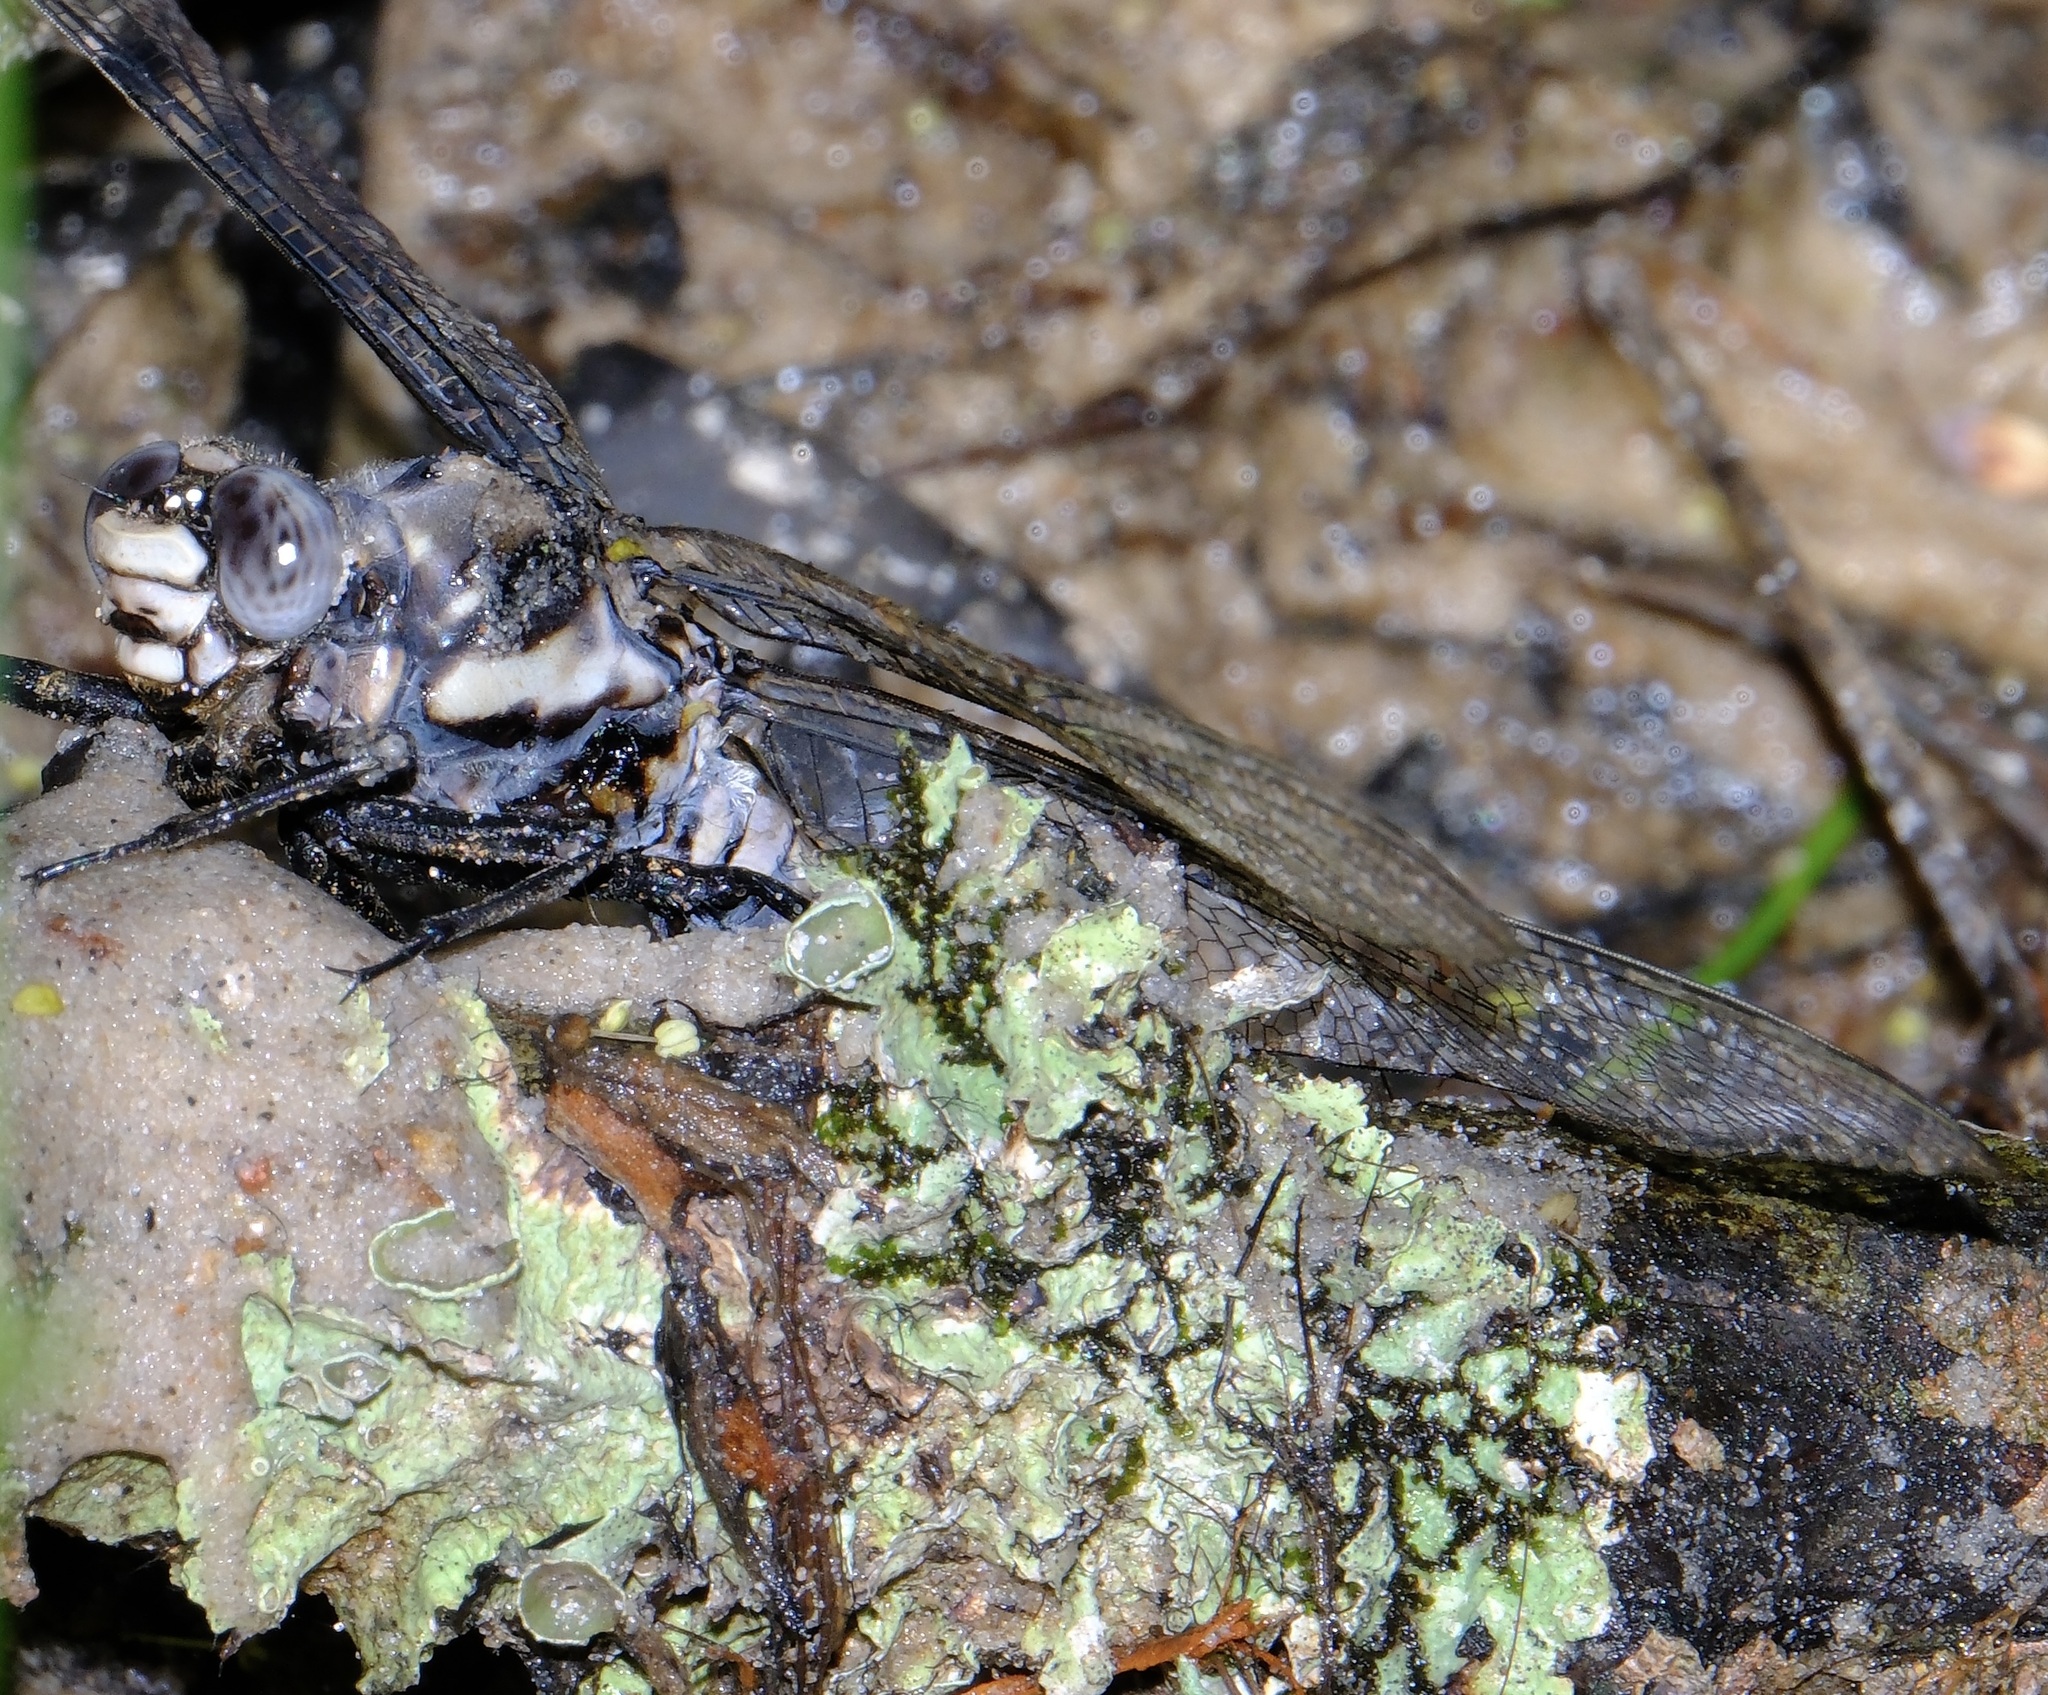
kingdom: Animalia
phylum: Arthropoda
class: Insecta
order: Odonata
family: Petaluridae
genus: Tachopteryx
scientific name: Tachopteryx thoreyi
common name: Gray petaltail
